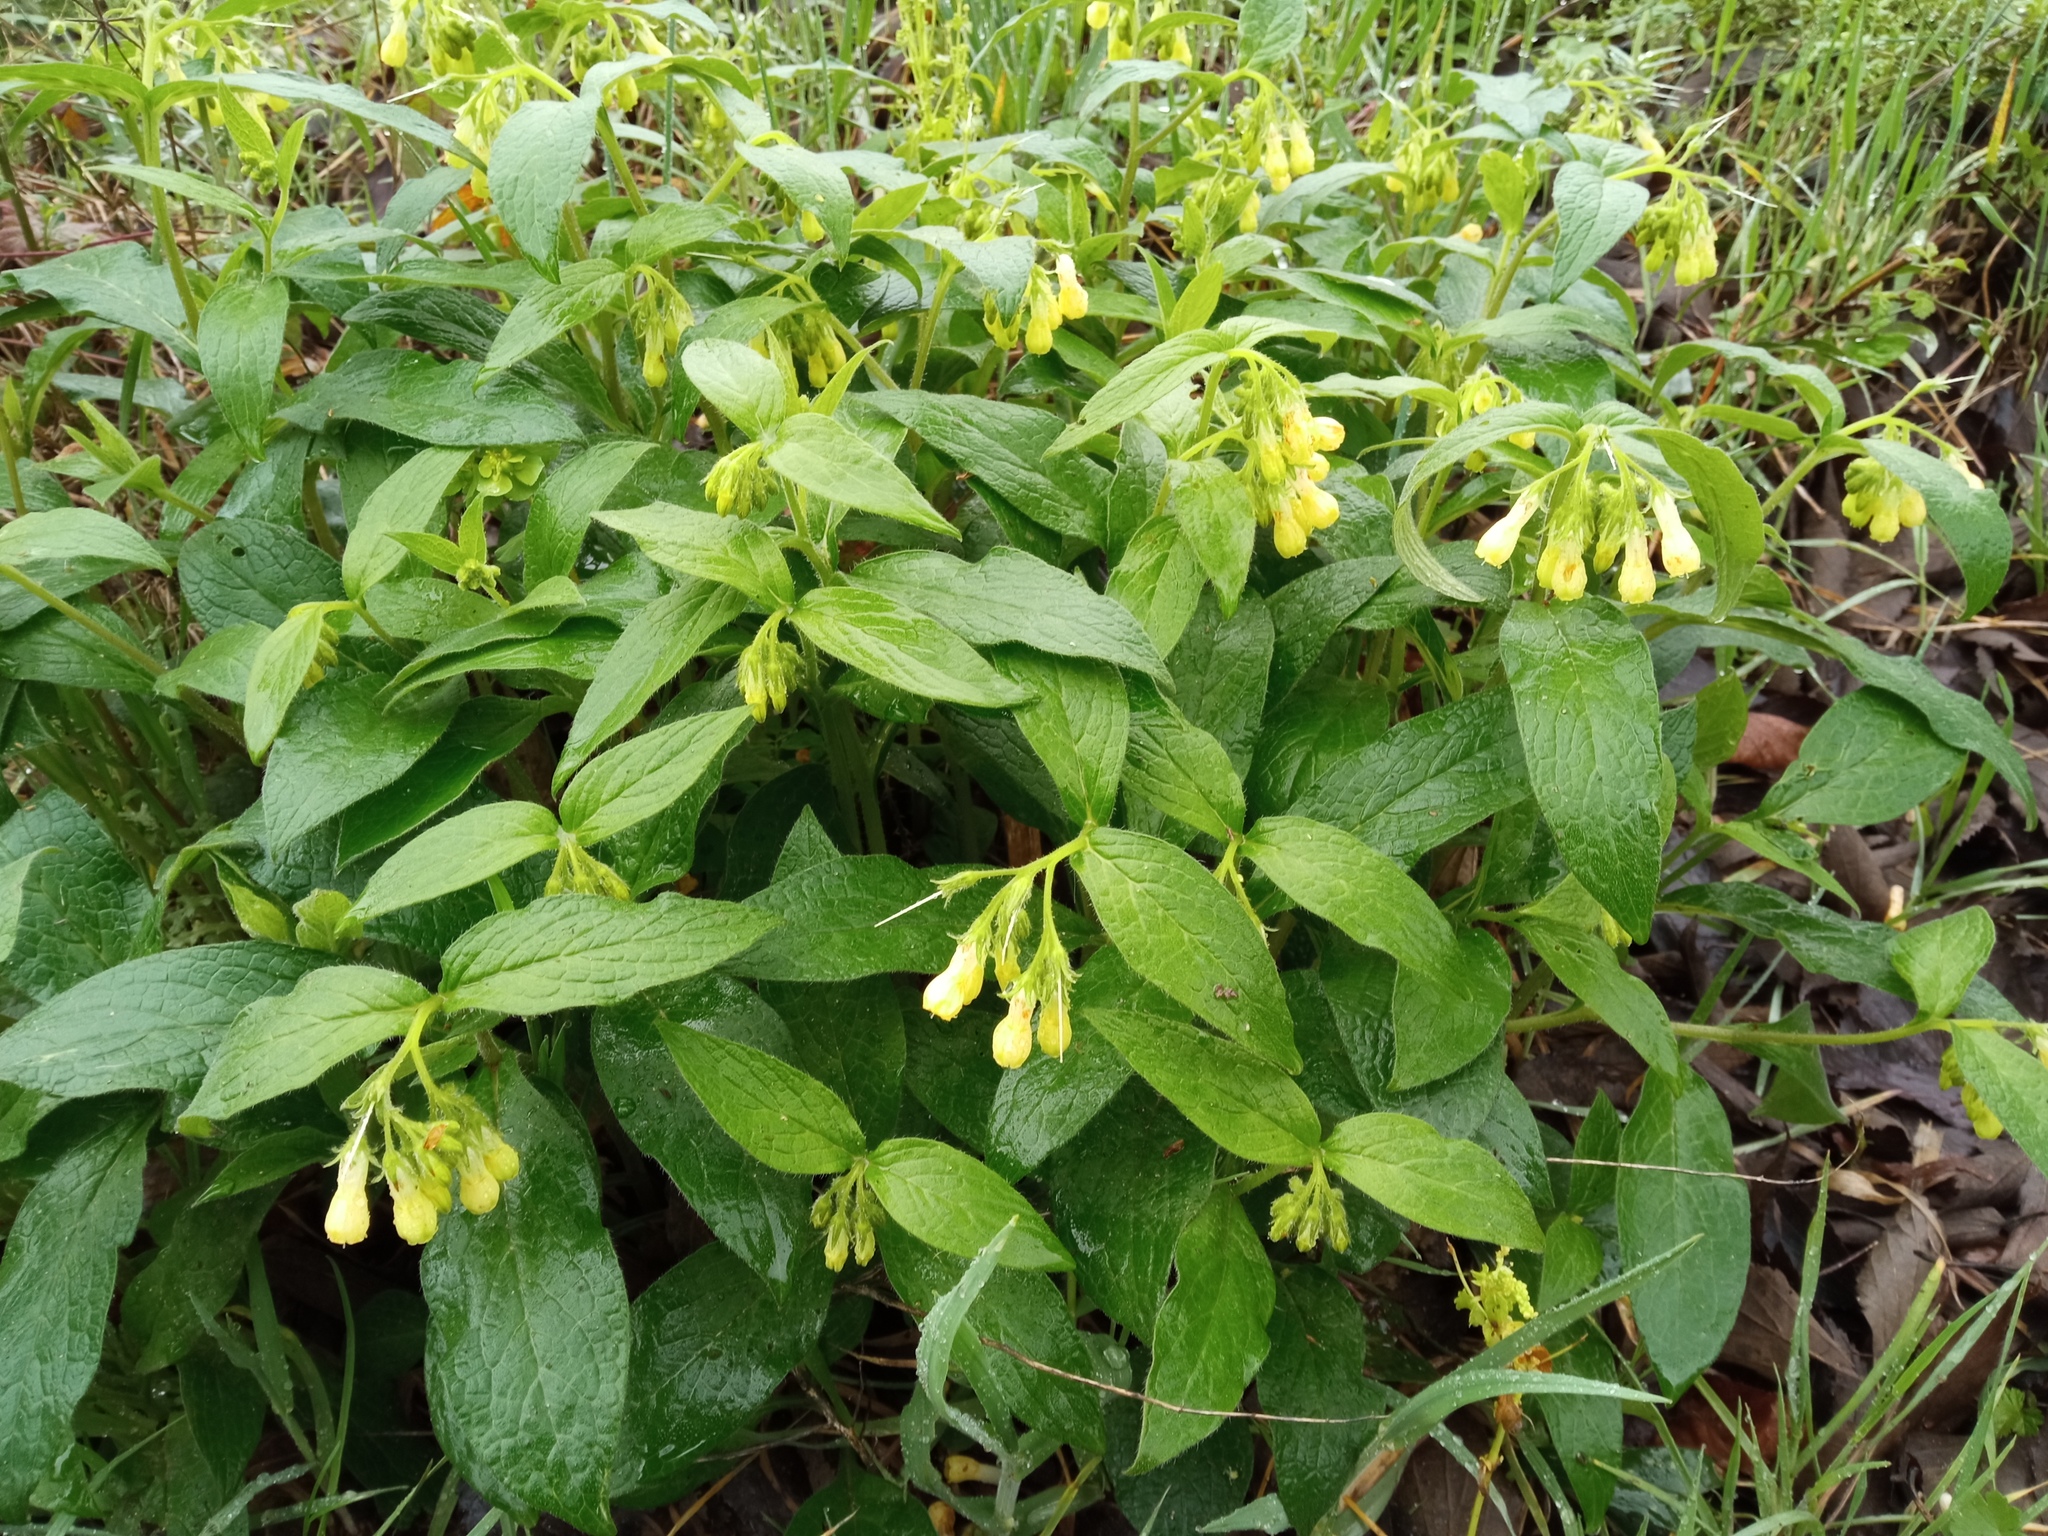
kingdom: Plantae
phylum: Tracheophyta
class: Magnoliopsida
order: Boraginales
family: Boraginaceae
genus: Symphytum
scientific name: Symphytum tuberosum
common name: Tuberous comfrey
